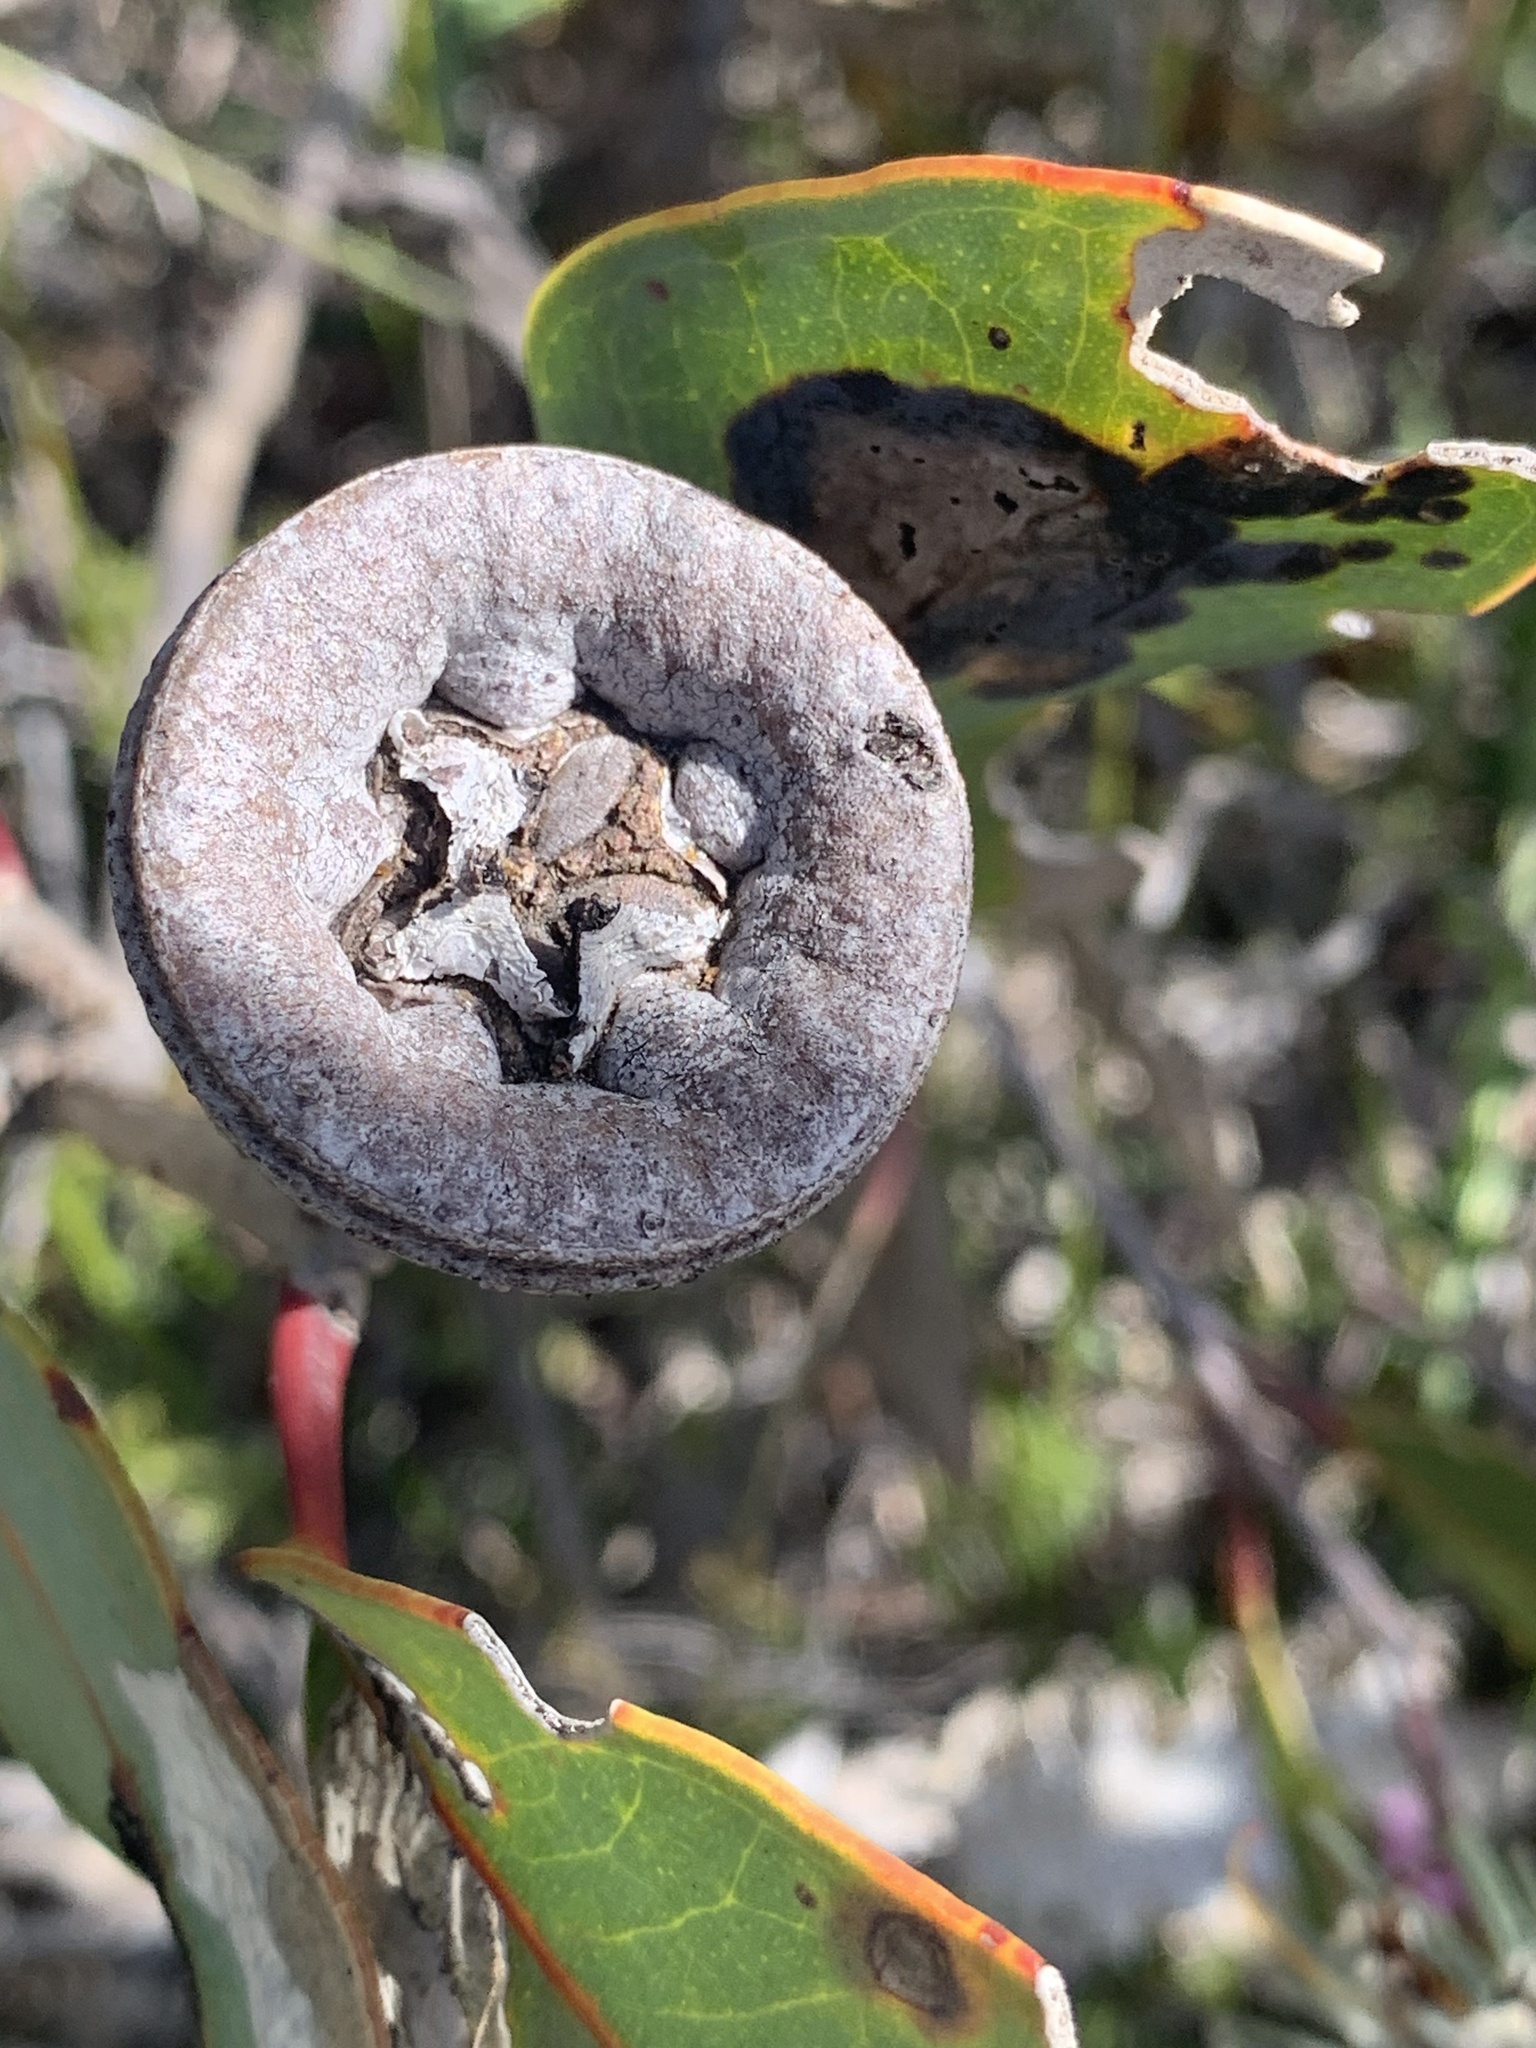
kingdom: Plantae
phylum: Tracheophyta
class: Magnoliopsida
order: Myrtales
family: Myrtaceae
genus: Eucalyptus
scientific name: Eucalyptus preissiana
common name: Stirling range mallee
